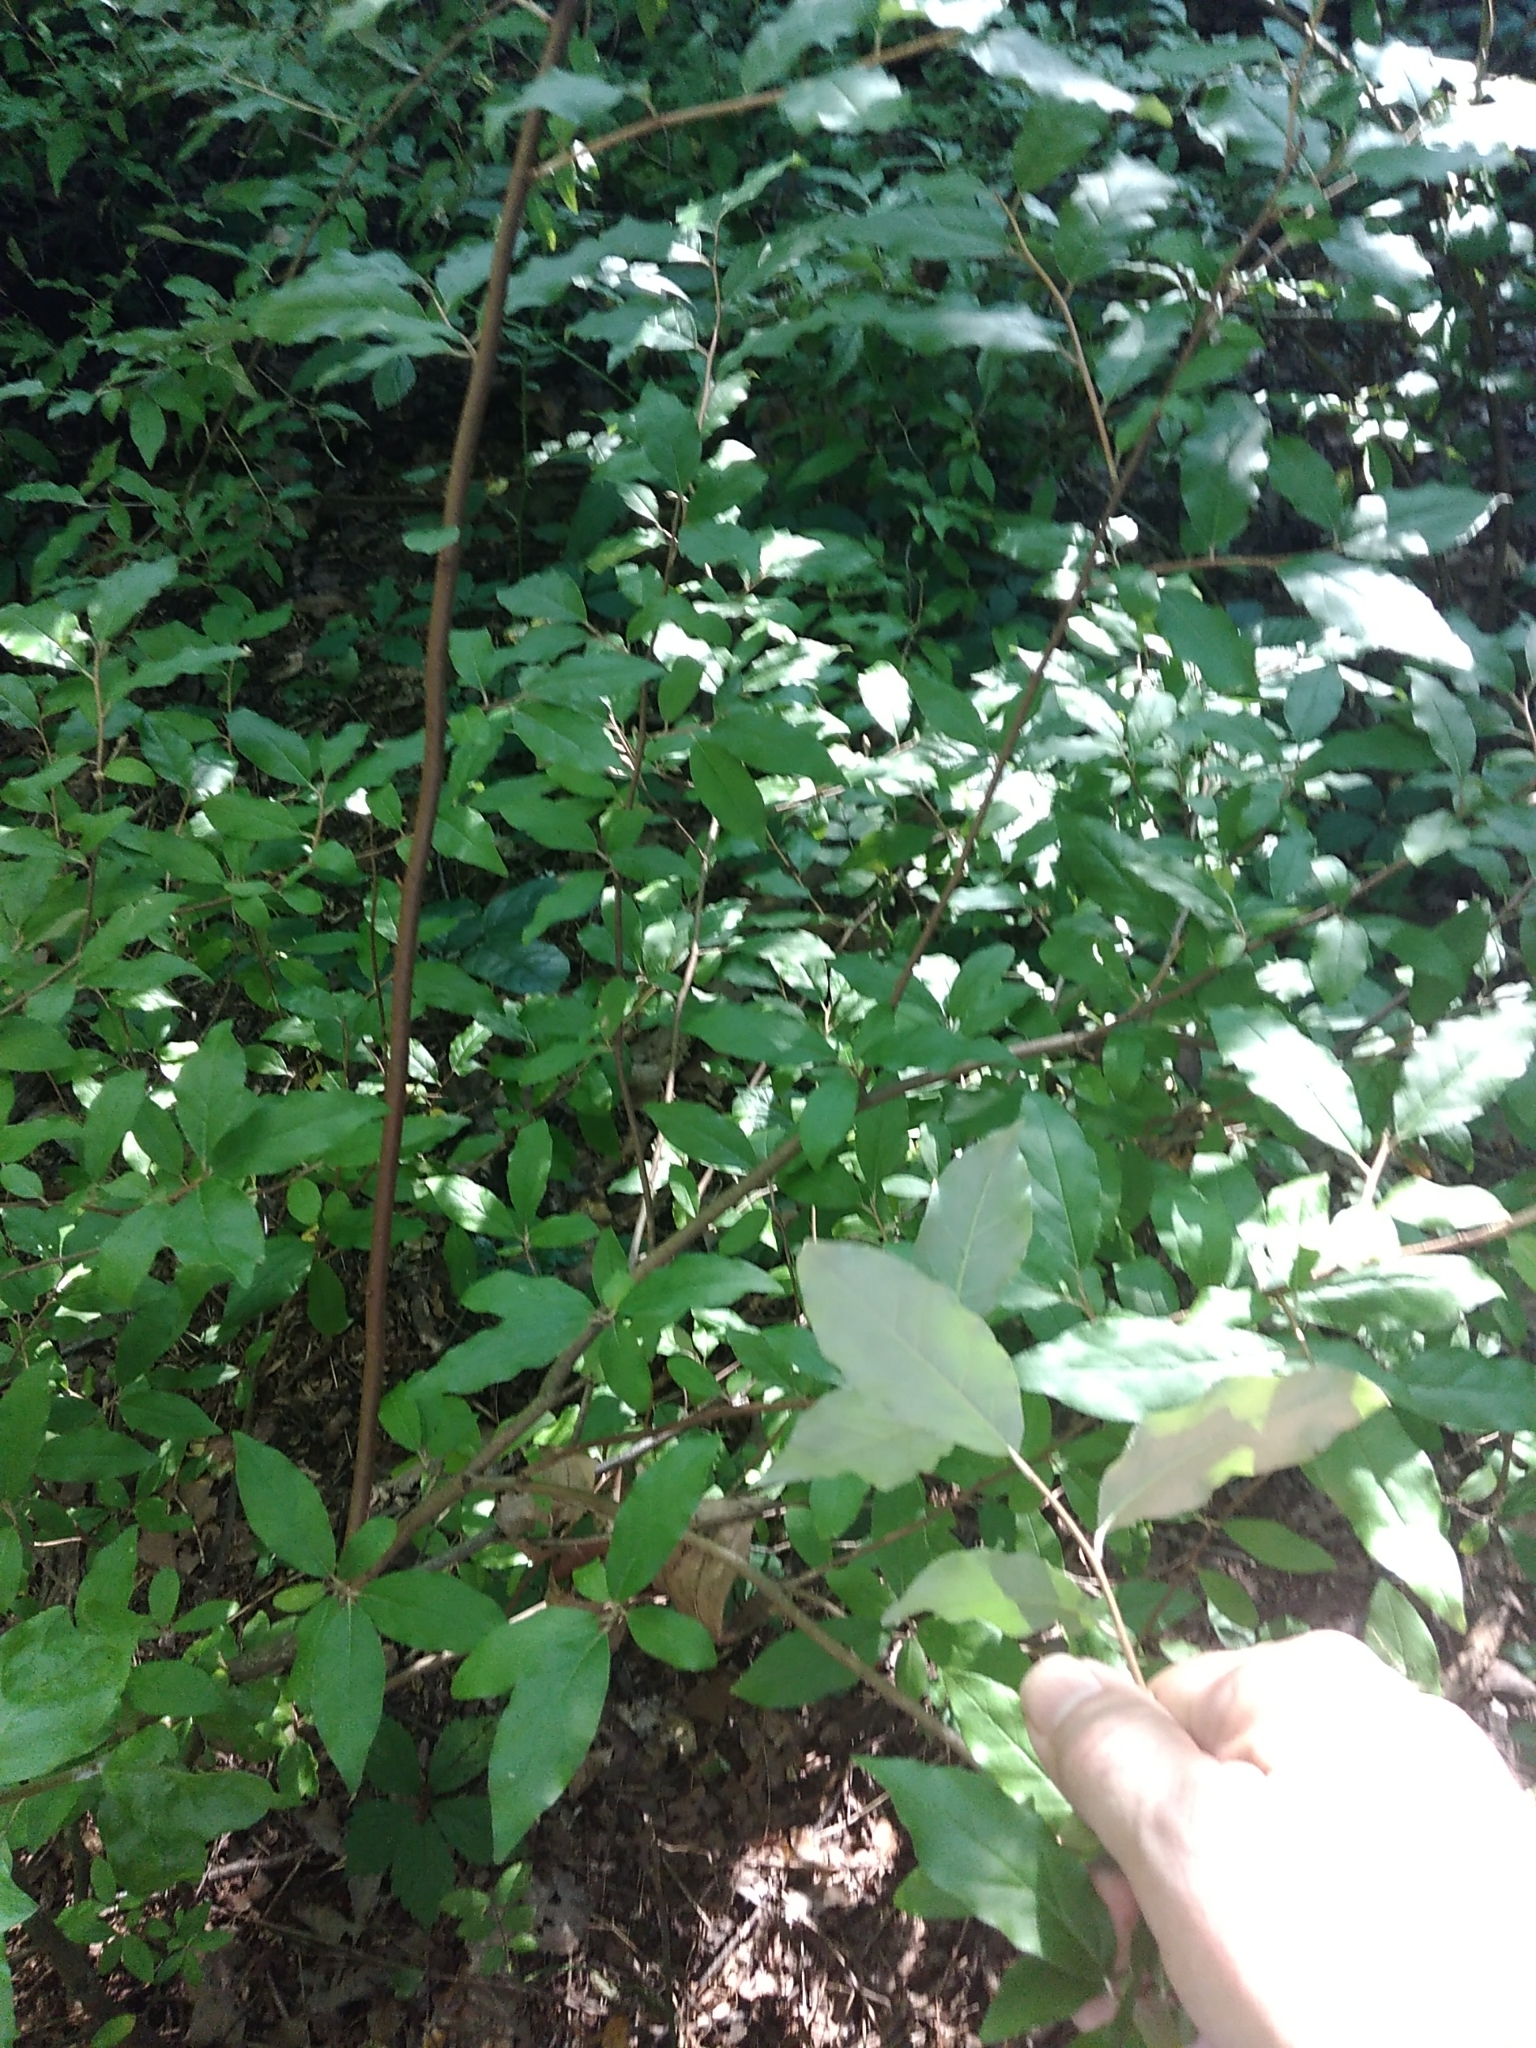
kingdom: Plantae
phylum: Tracheophyta
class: Magnoliopsida
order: Rosales
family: Elaeagnaceae
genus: Elaeagnus
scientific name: Elaeagnus umbellata
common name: Autumn olive
